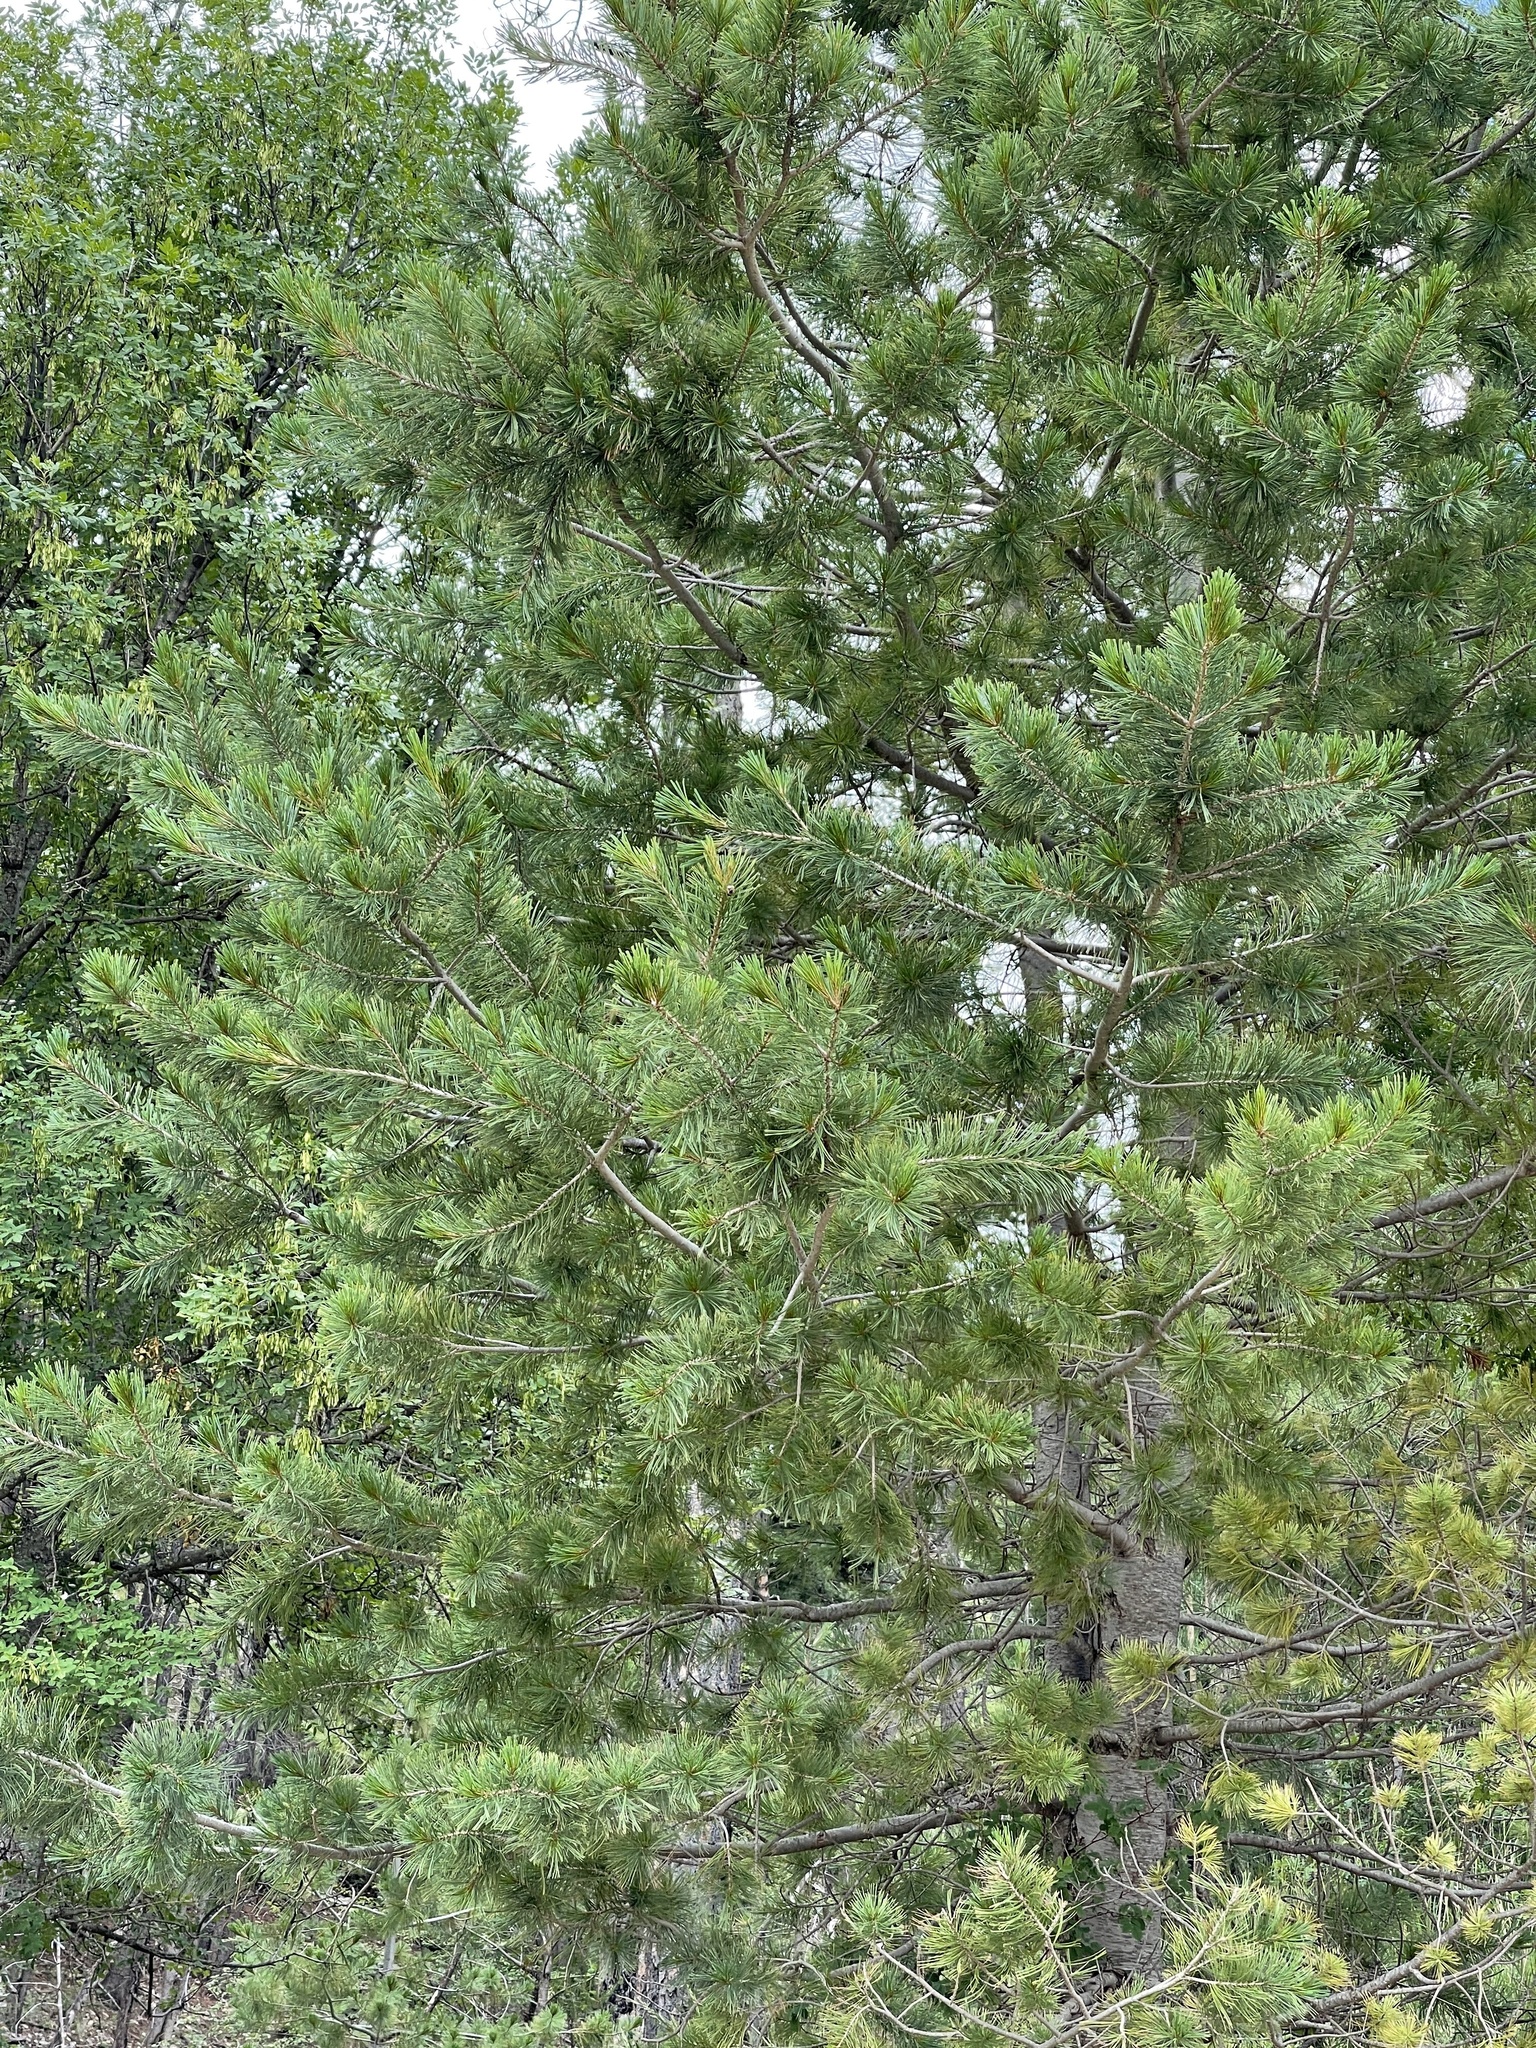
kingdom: Plantae
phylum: Tracheophyta
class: Pinopsida
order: Pinales
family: Pinaceae
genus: Pinus
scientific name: Pinus strobiformis
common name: Southwestern white pine
